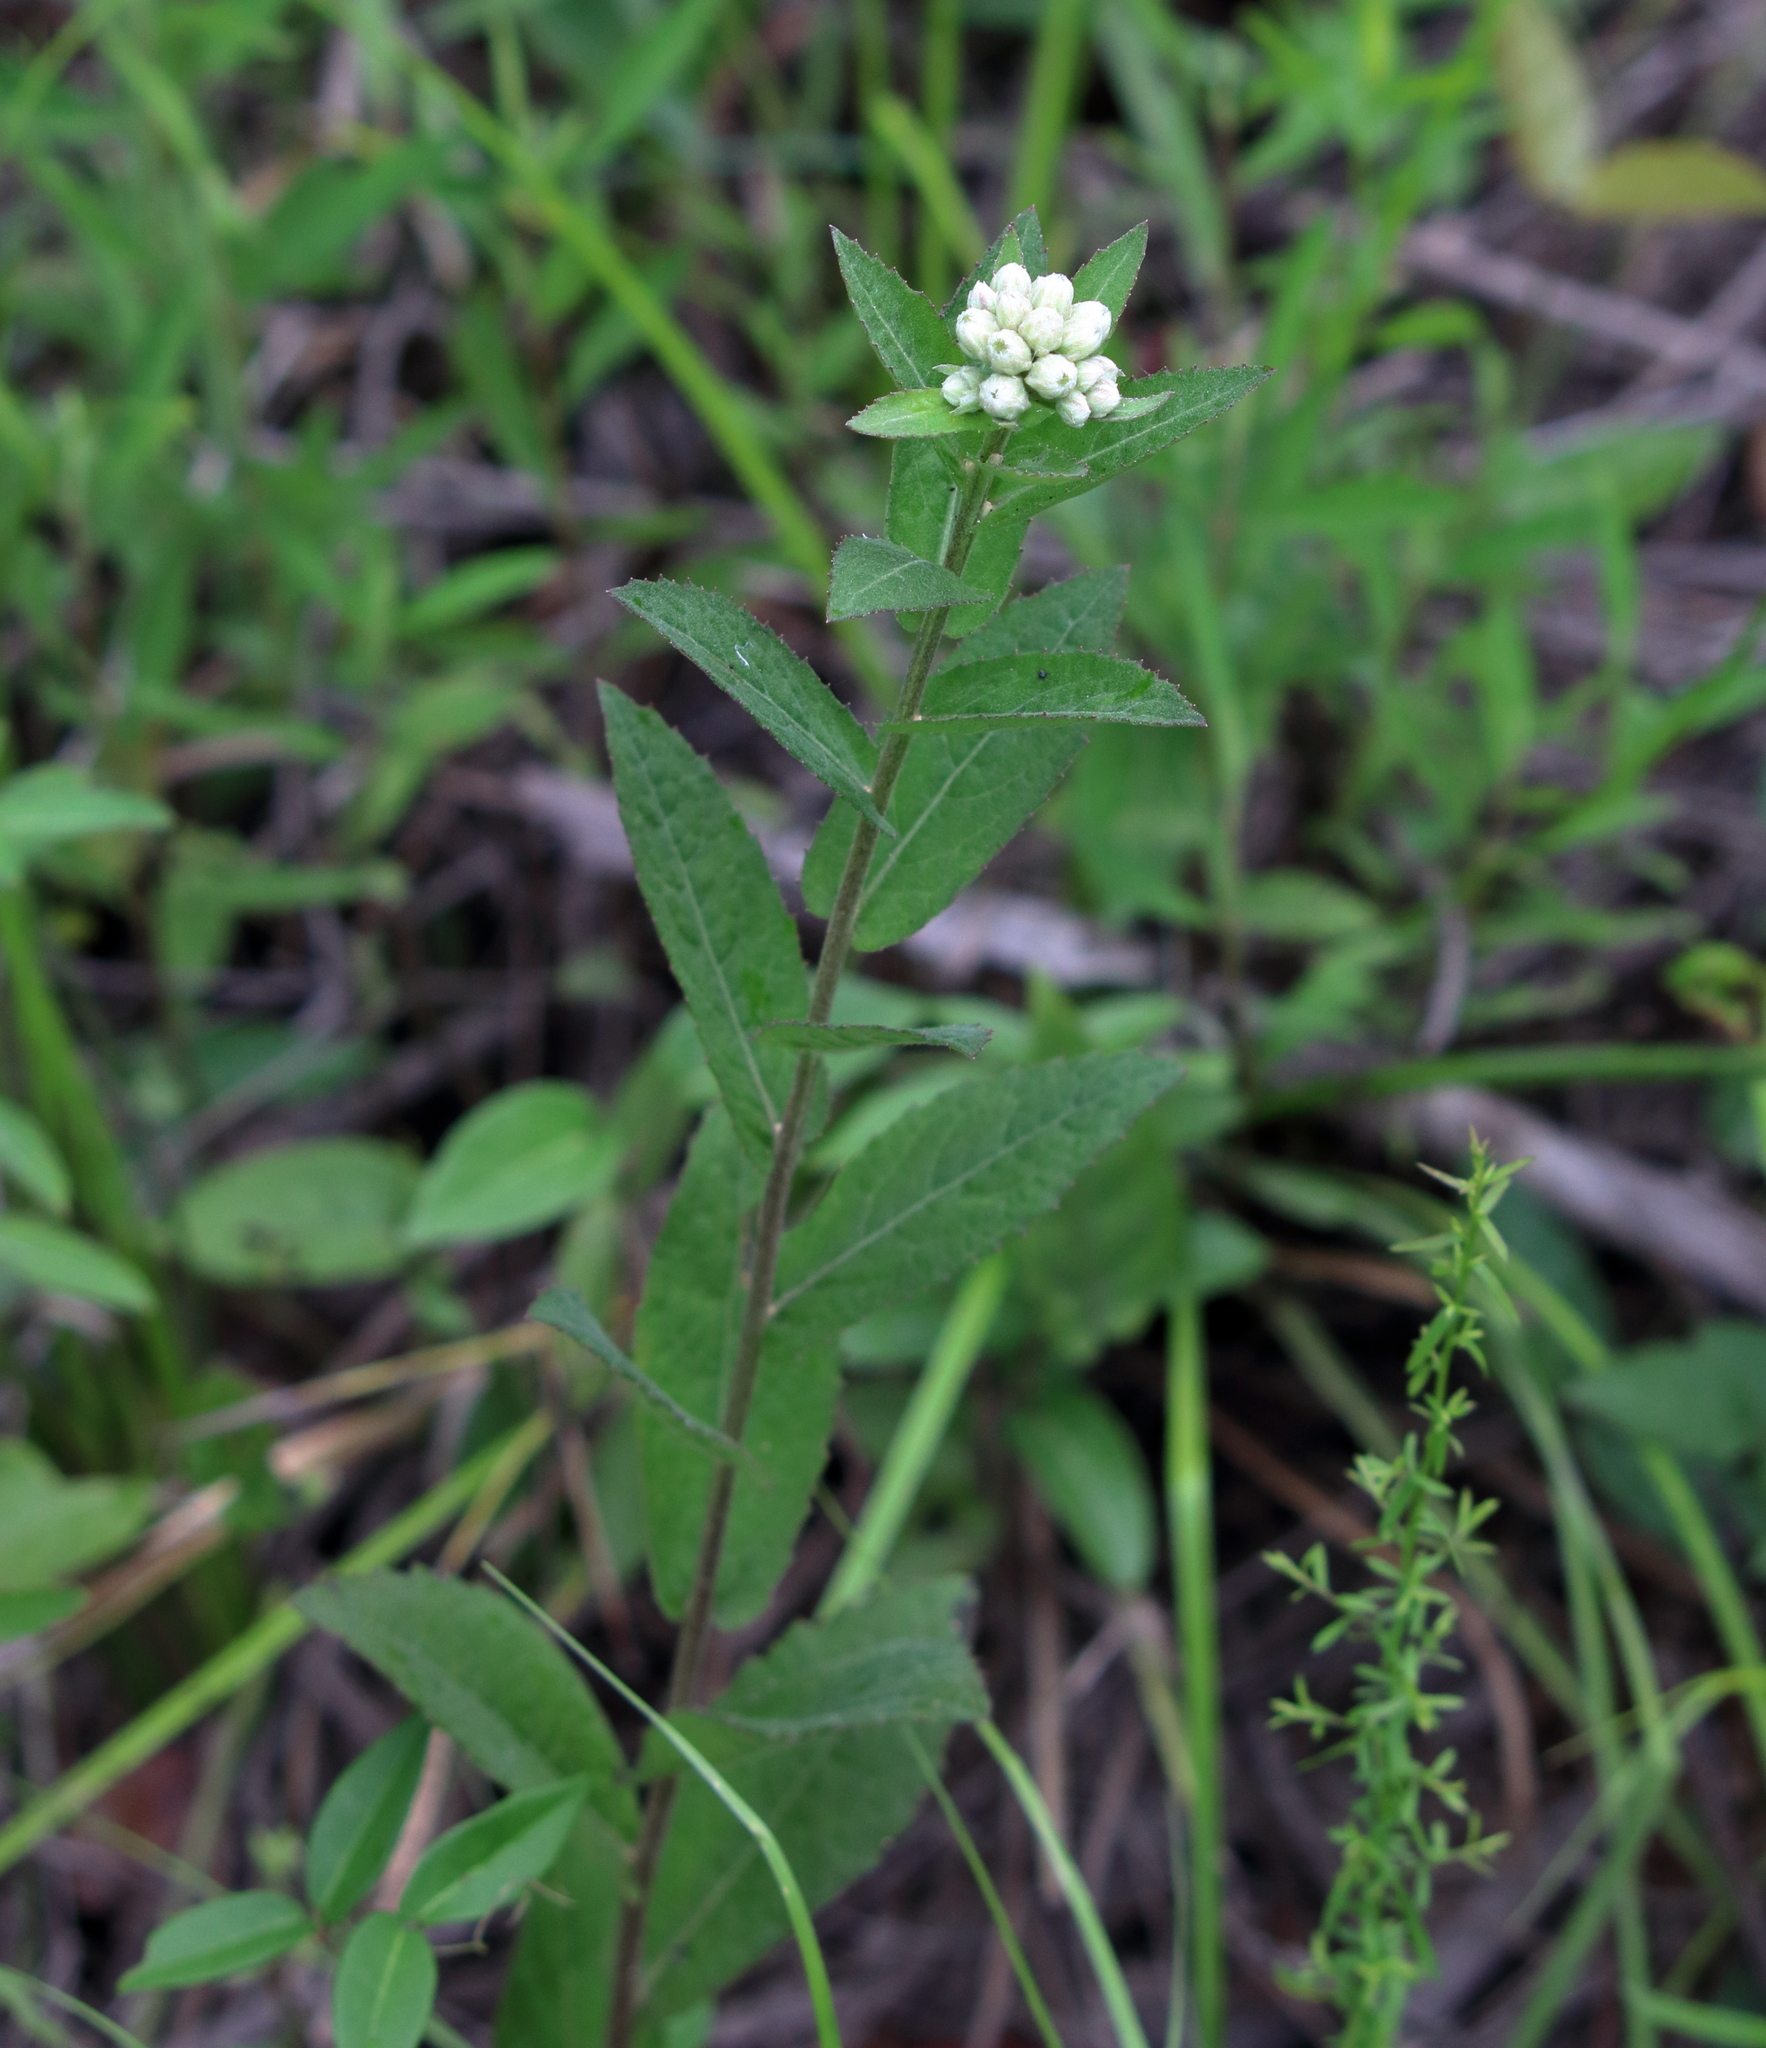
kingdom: Plantae
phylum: Tracheophyta
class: Magnoliopsida
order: Asterales
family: Asteraceae
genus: Pluchea
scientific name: Pluchea foetida
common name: Stinking camphorweed
